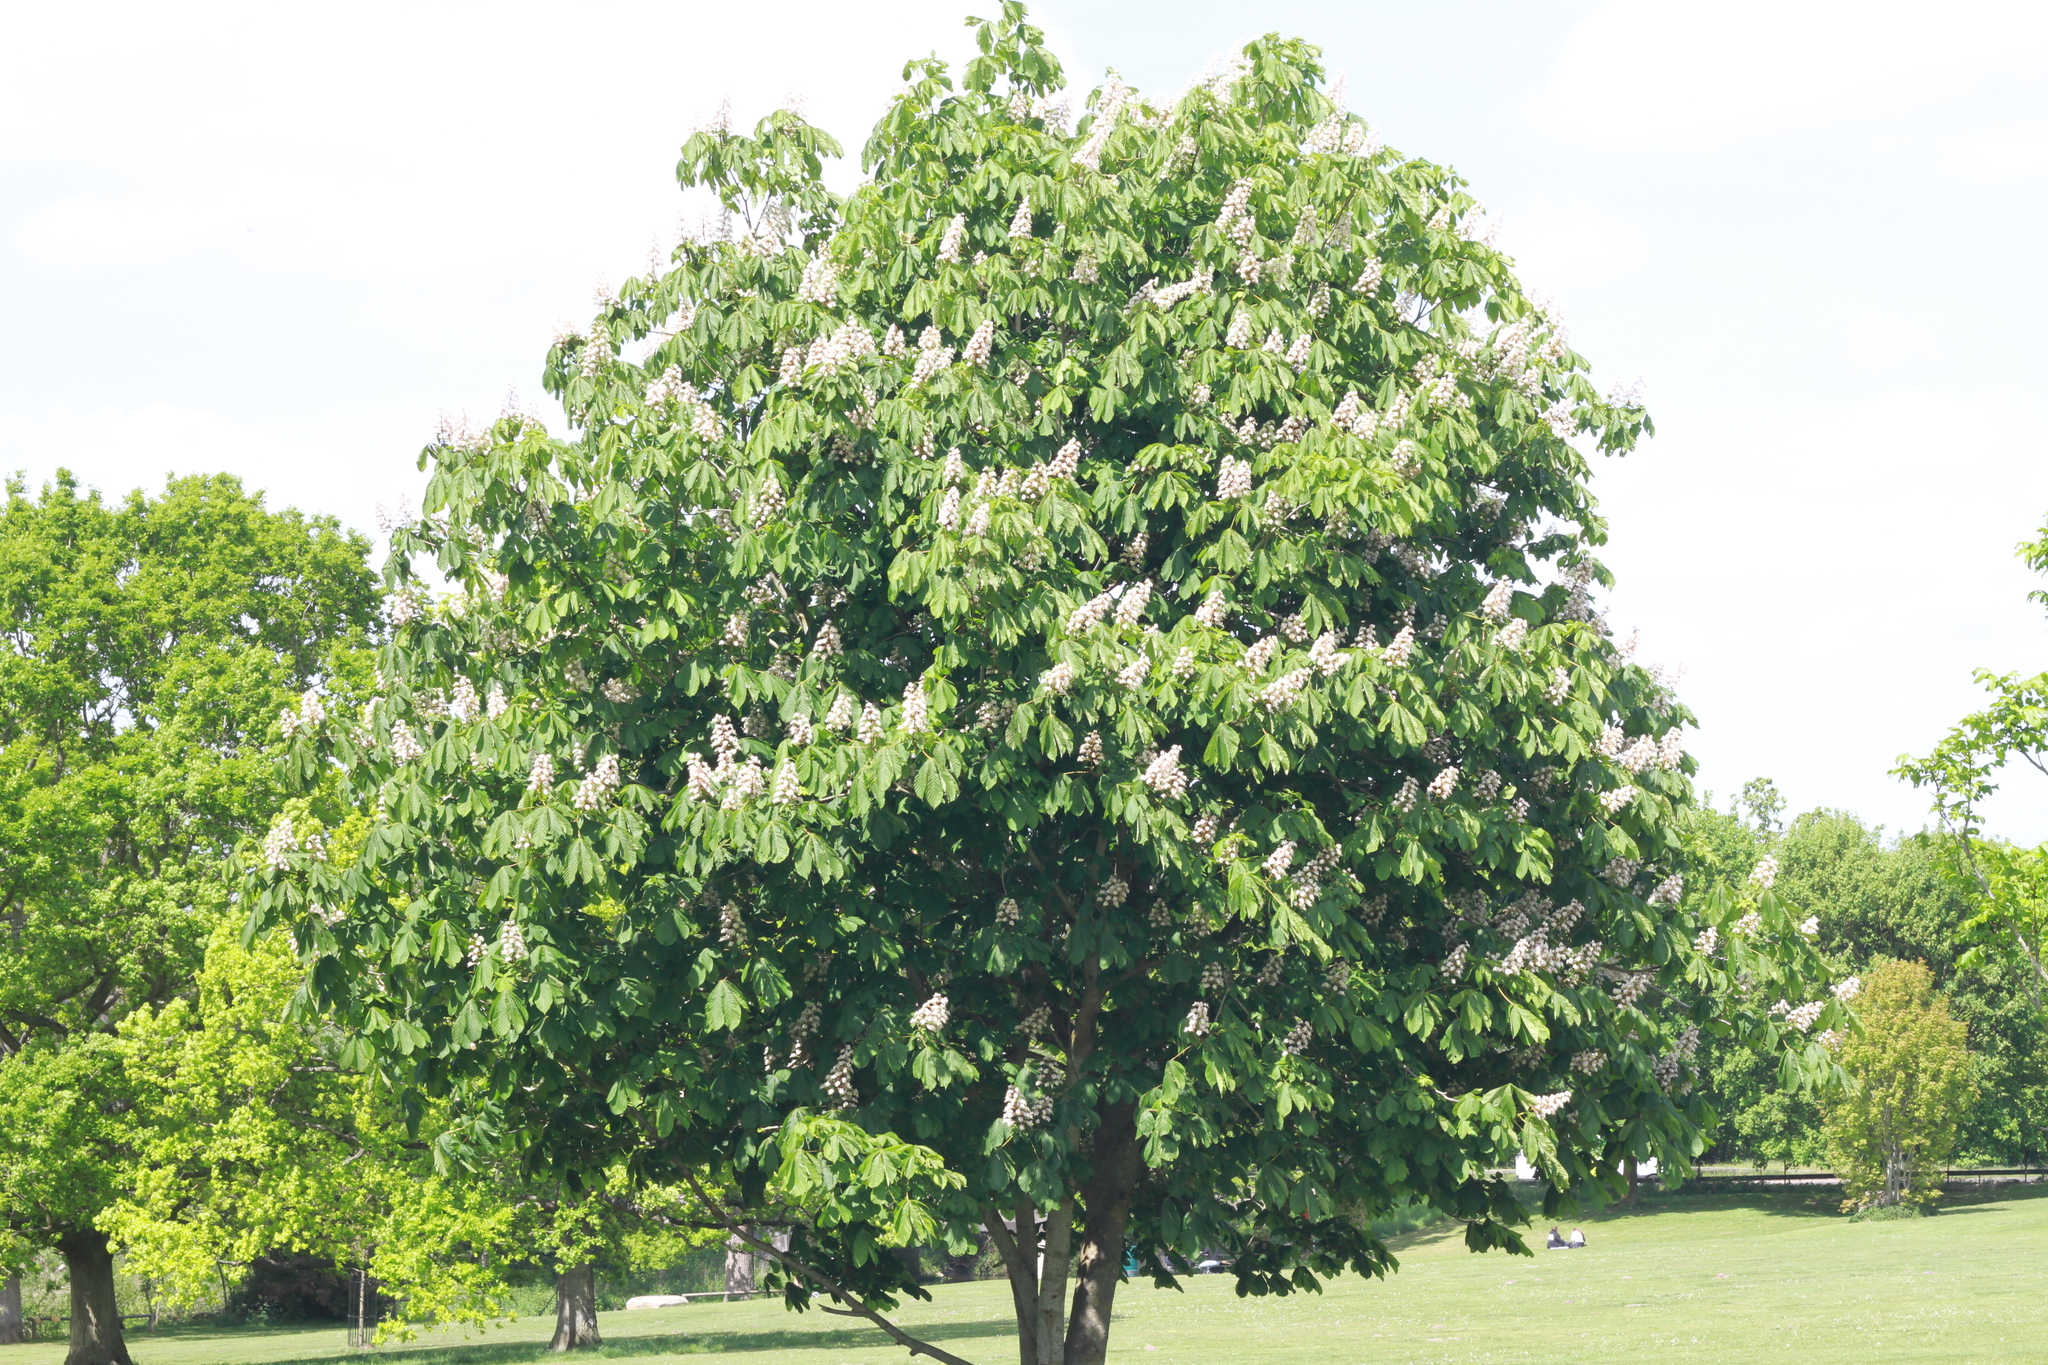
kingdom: Plantae
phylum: Tracheophyta
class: Magnoliopsida
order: Sapindales
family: Sapindaceae
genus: Aesculus
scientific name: Aesculus hippocastanum
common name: Horse-chestnut
